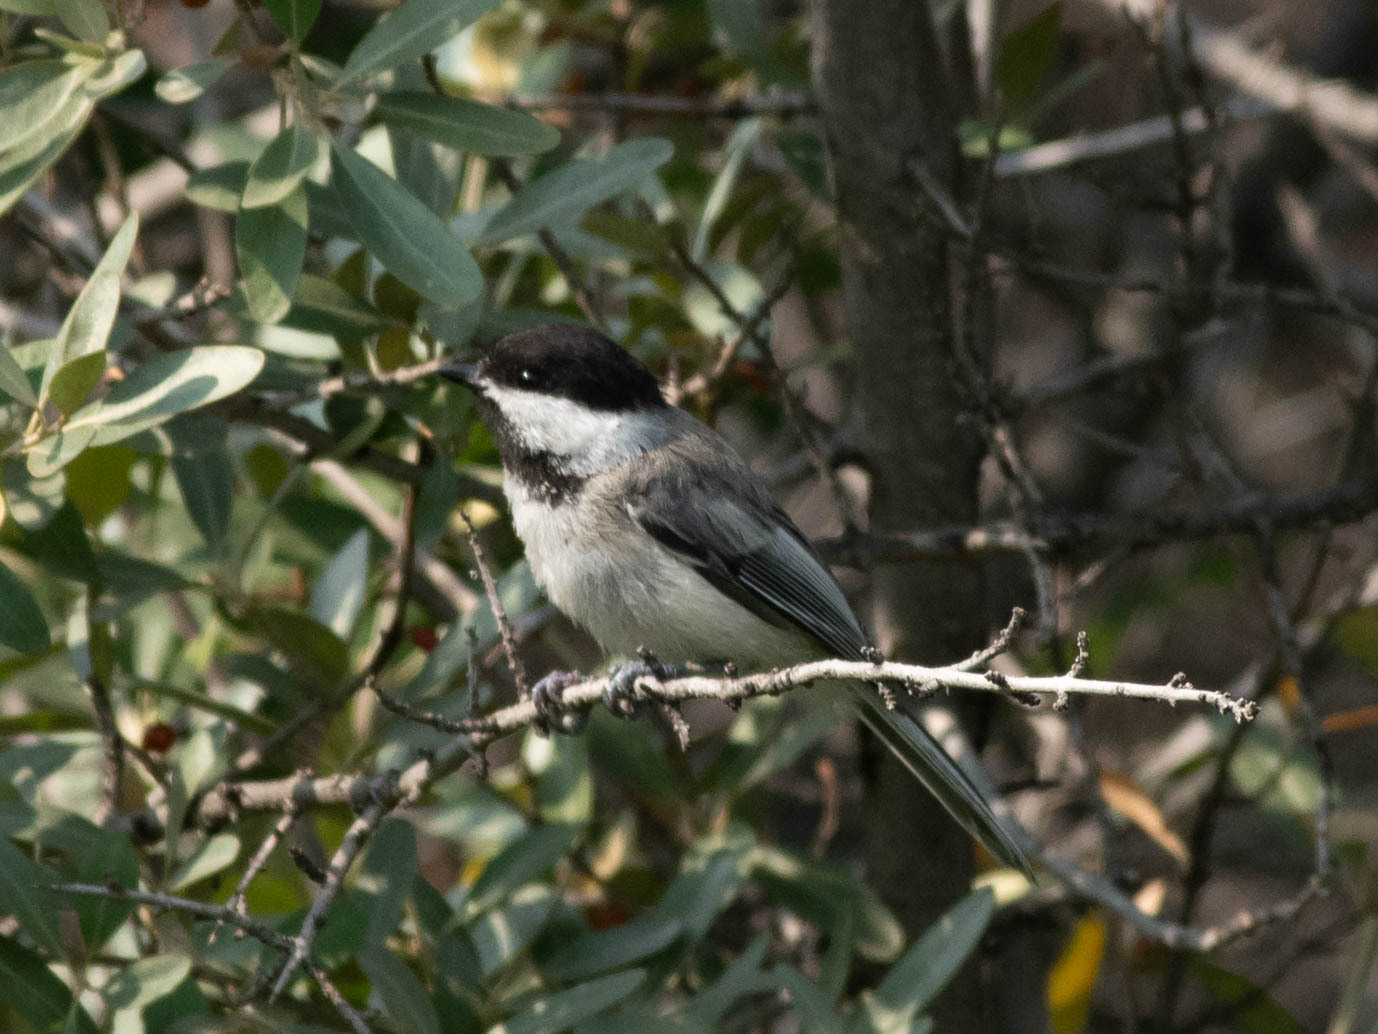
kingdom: Animalia
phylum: Chordata
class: Aves
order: Passeriformes
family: Paridae
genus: Poecile
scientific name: Poecile atricapillus
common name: Black-capped chickadee
